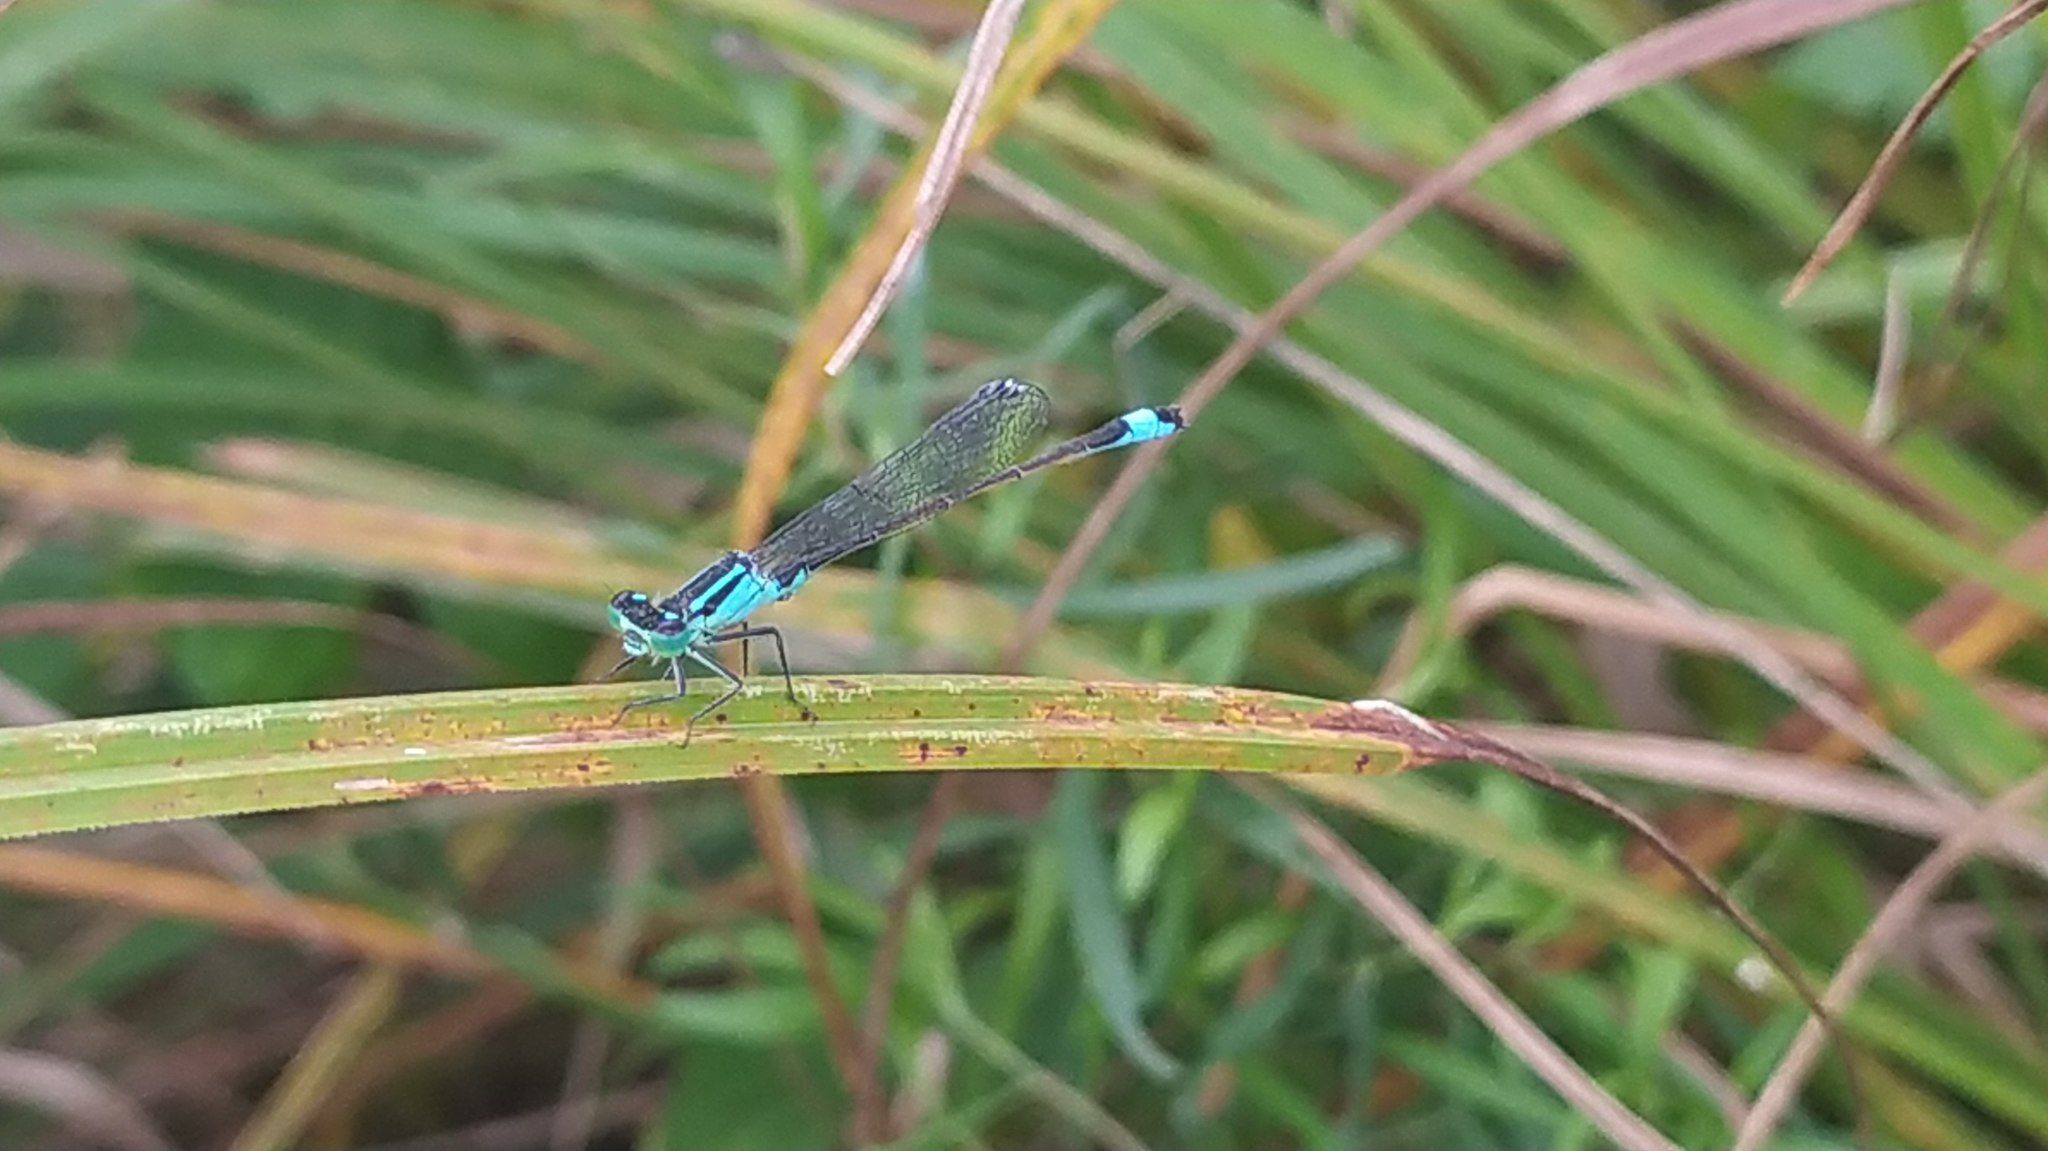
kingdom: Animalia
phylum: Arthropoda
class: Insecta
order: Odonata
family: Coenagrionidae
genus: Ischnura
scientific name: Ischnura elegans
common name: Blue-tailed damselfly
